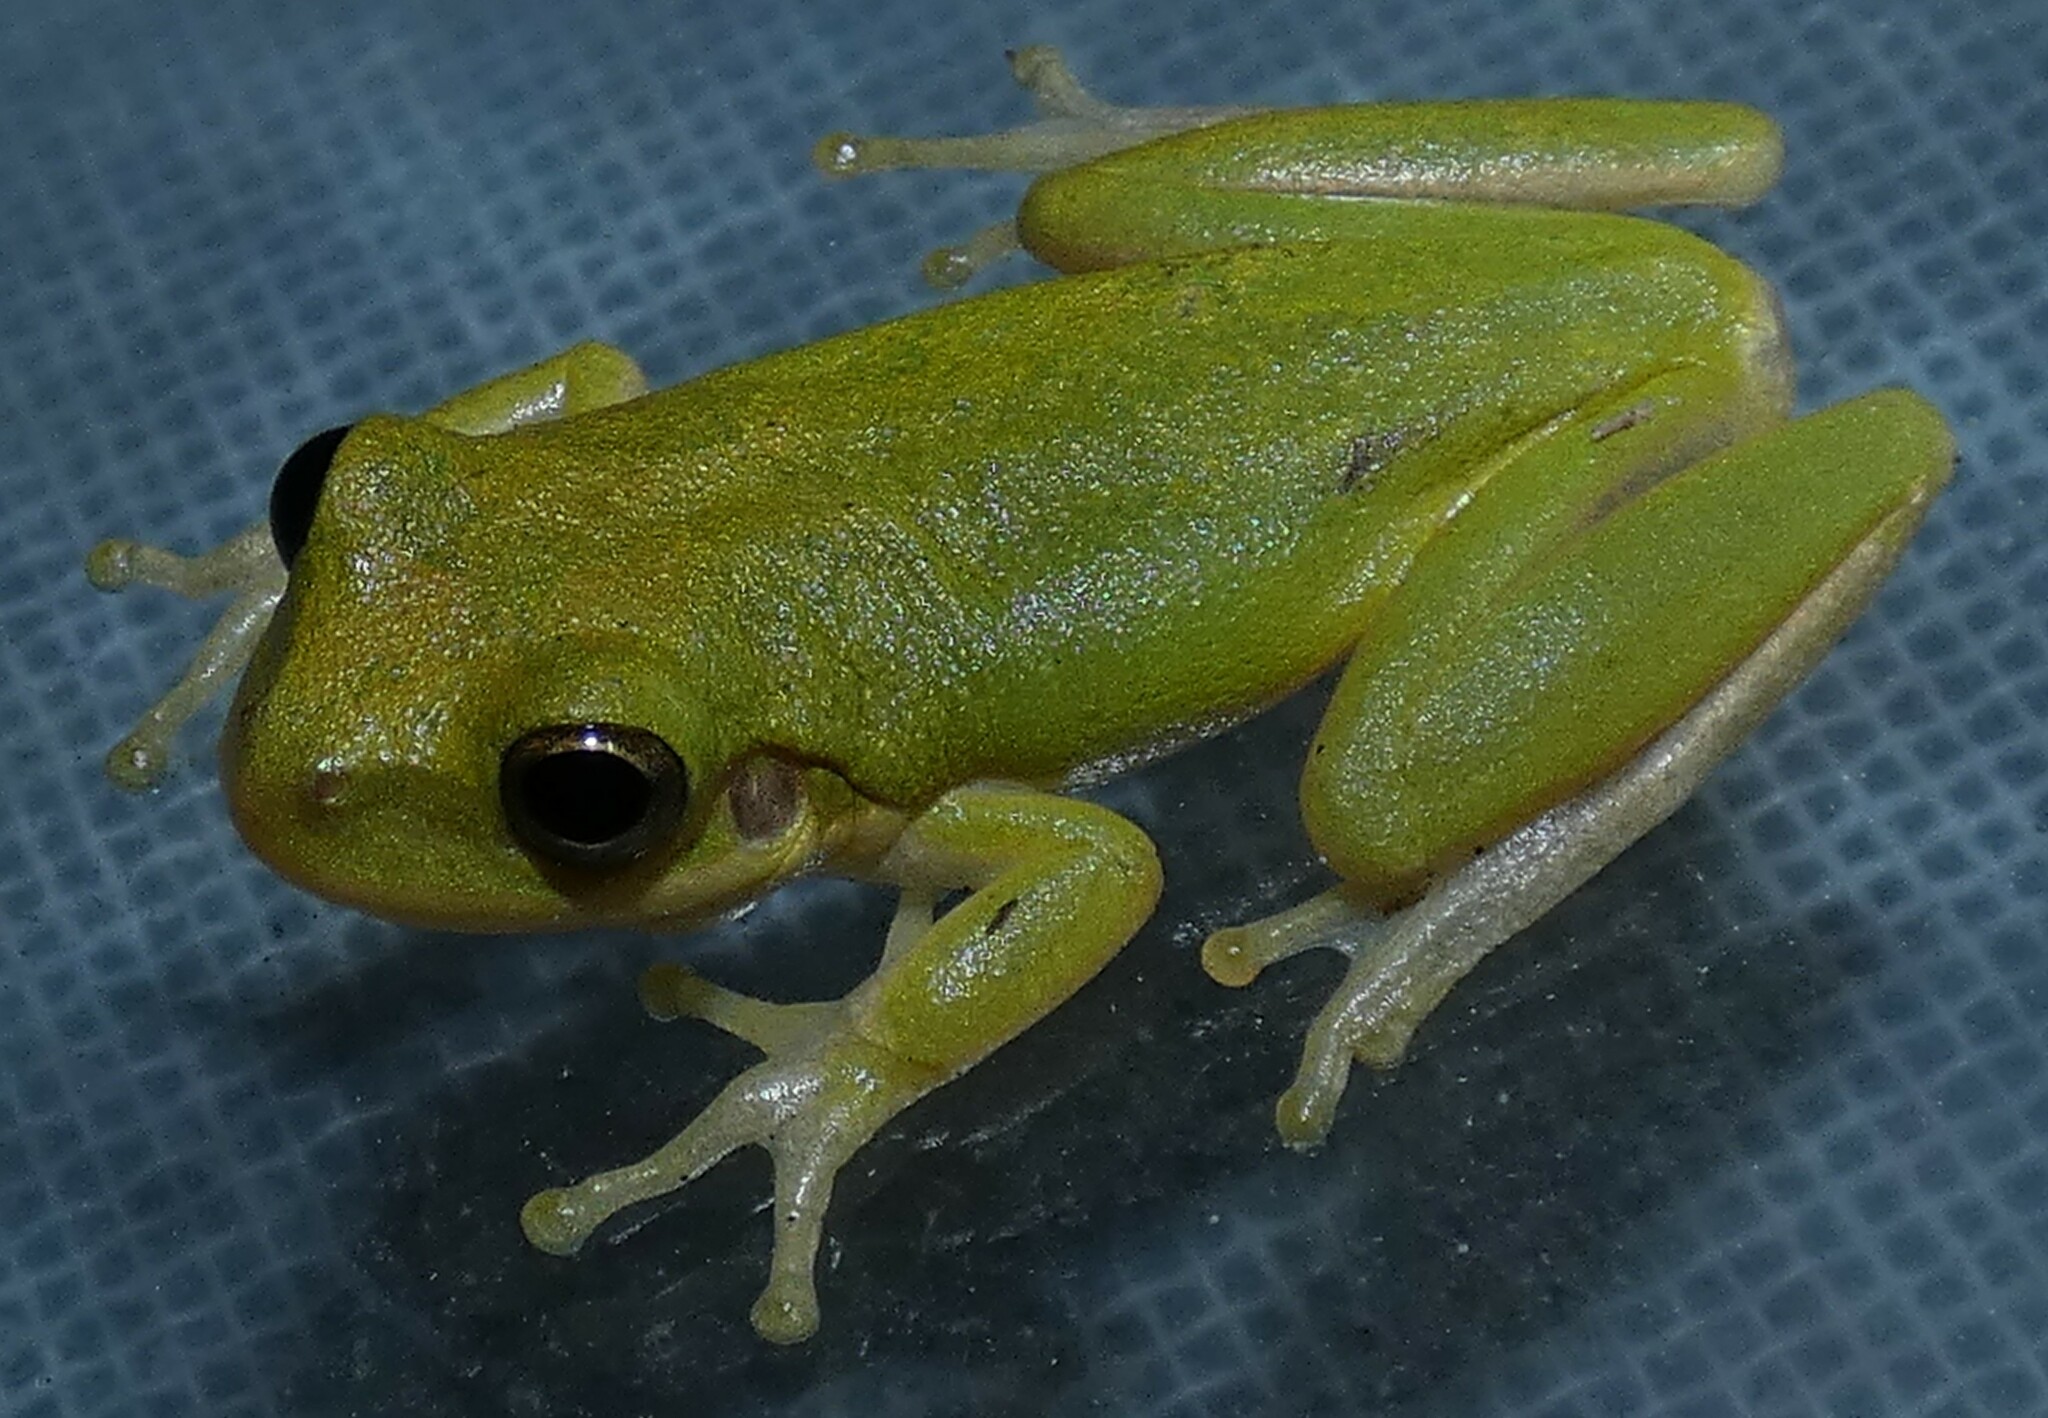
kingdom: Animalia
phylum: Chordata
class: Amphibia
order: Anura
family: Hylidae
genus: Dryophytes
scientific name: Dryophytes squirellus
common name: Squirrel treefrog
